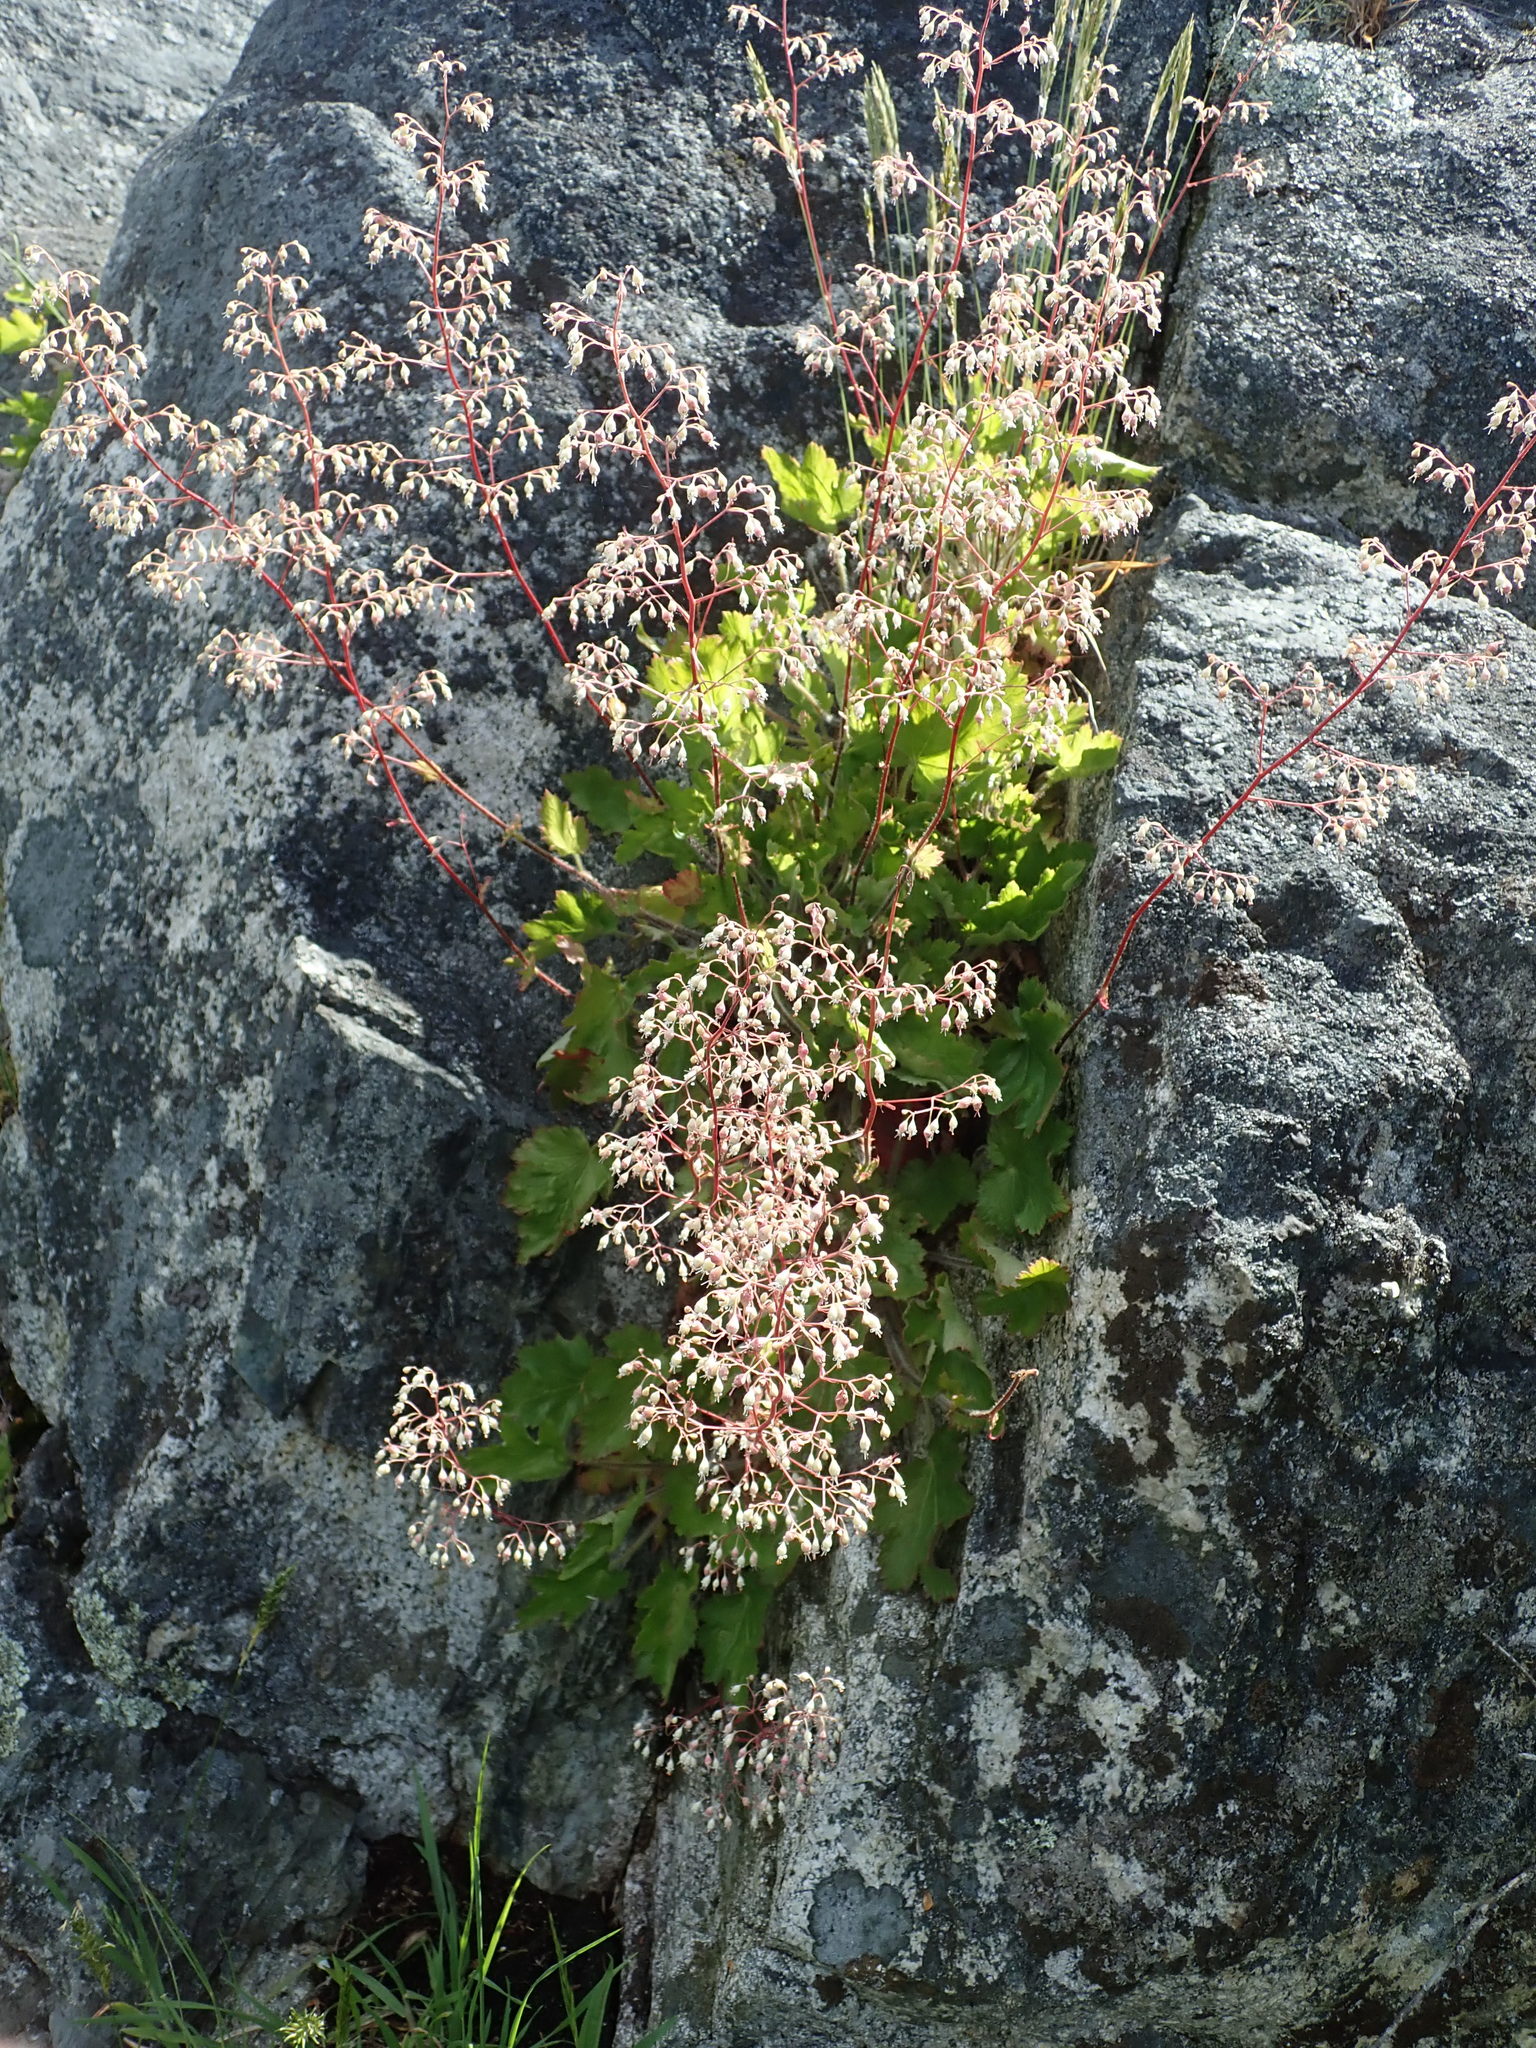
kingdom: Plantae
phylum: Tracheophyta
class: Magnoliopsida
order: Saxifragales
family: Saxifragaceae
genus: Heuchera
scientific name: Heuchera micrantha
